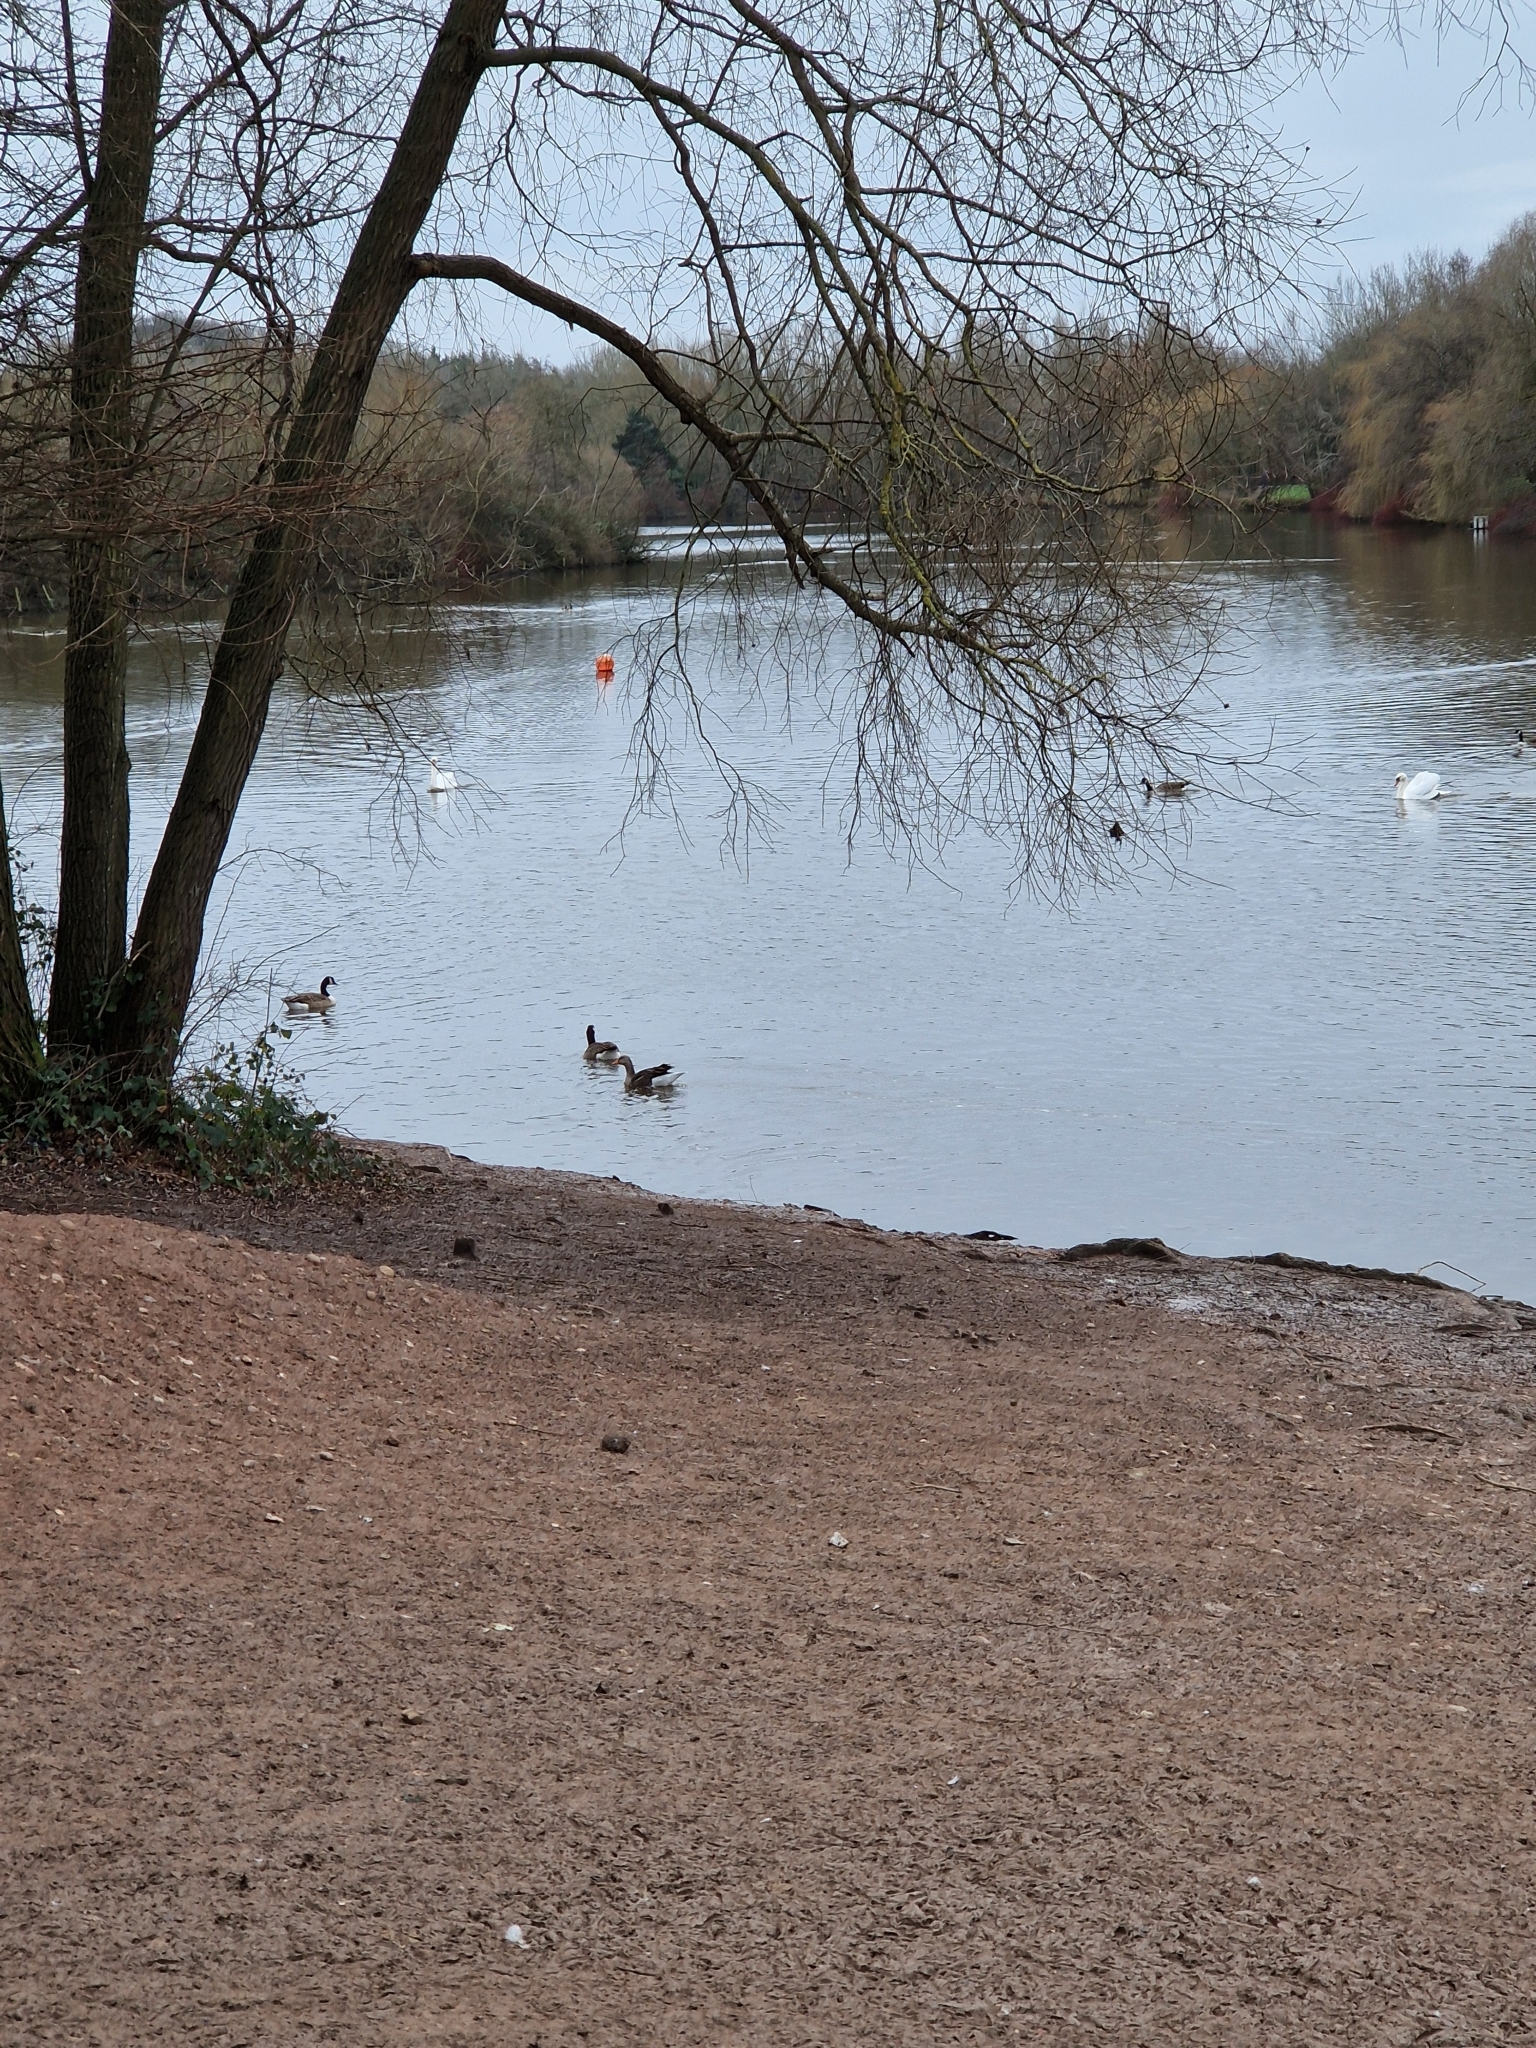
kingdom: Animalia
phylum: Chordata
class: Aves
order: Anseriformes
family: Anatidae
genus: Anser
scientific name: Anser anser
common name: Greylag goose
